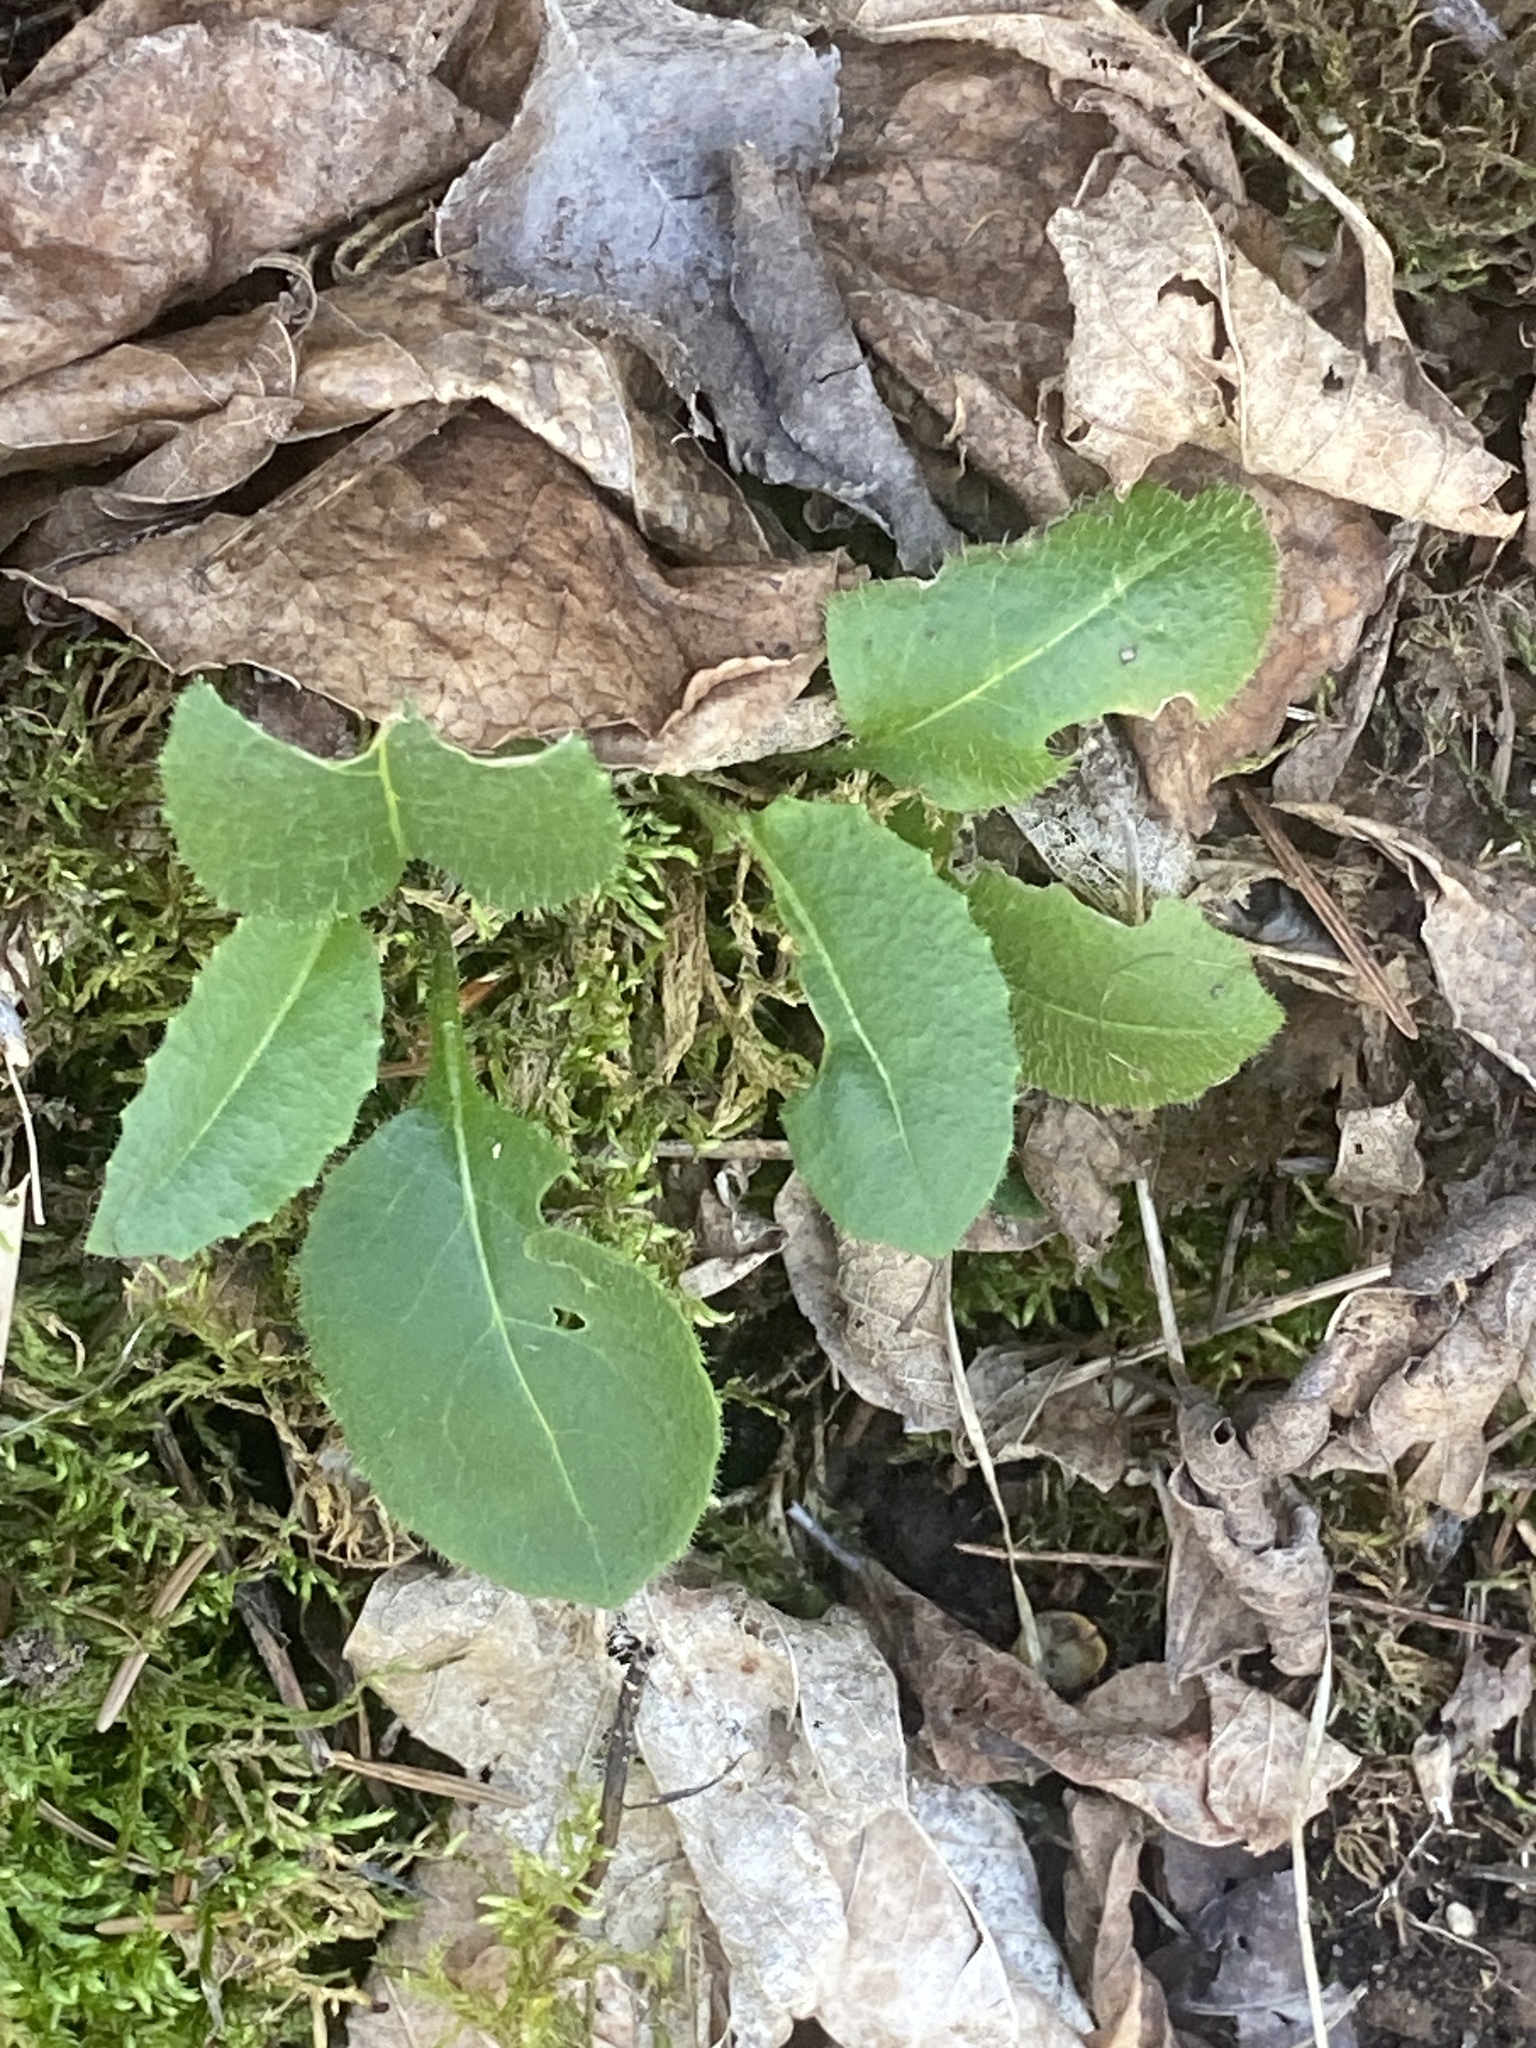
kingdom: Plantae
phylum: Tracheophyta
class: Magnoliopsida
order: Brassicales
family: Brassicaceae
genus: Hesperis
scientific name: Hesperis matronalis
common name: Dame's-violet
